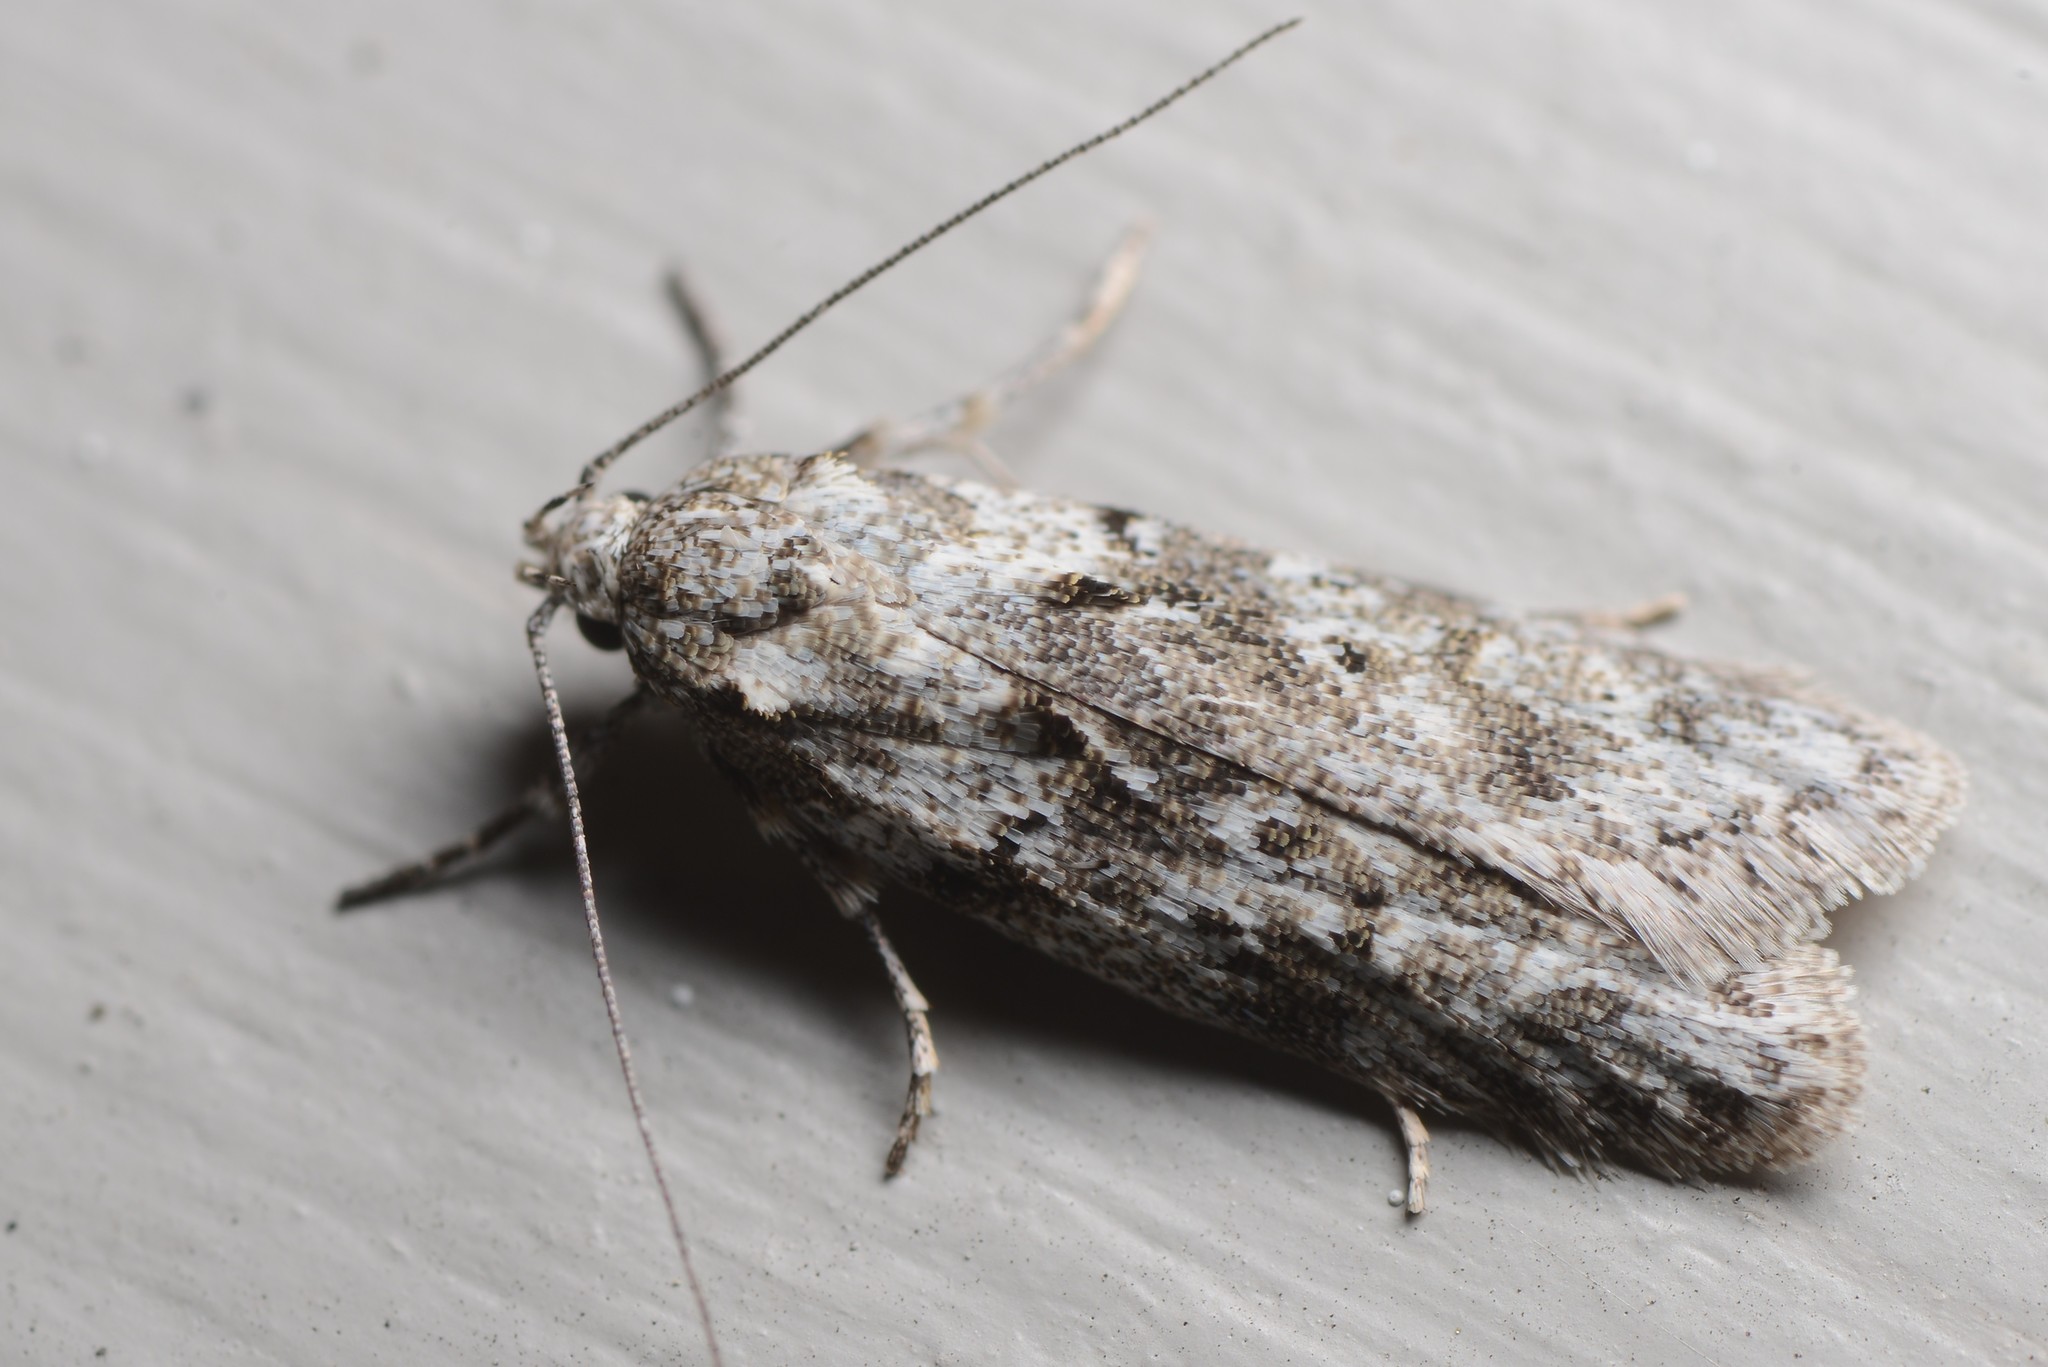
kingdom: Animalia
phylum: Arthropoda
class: Insecta
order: Lepidoptera
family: Oecophoridae
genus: Izatha
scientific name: Izatha convulsella
